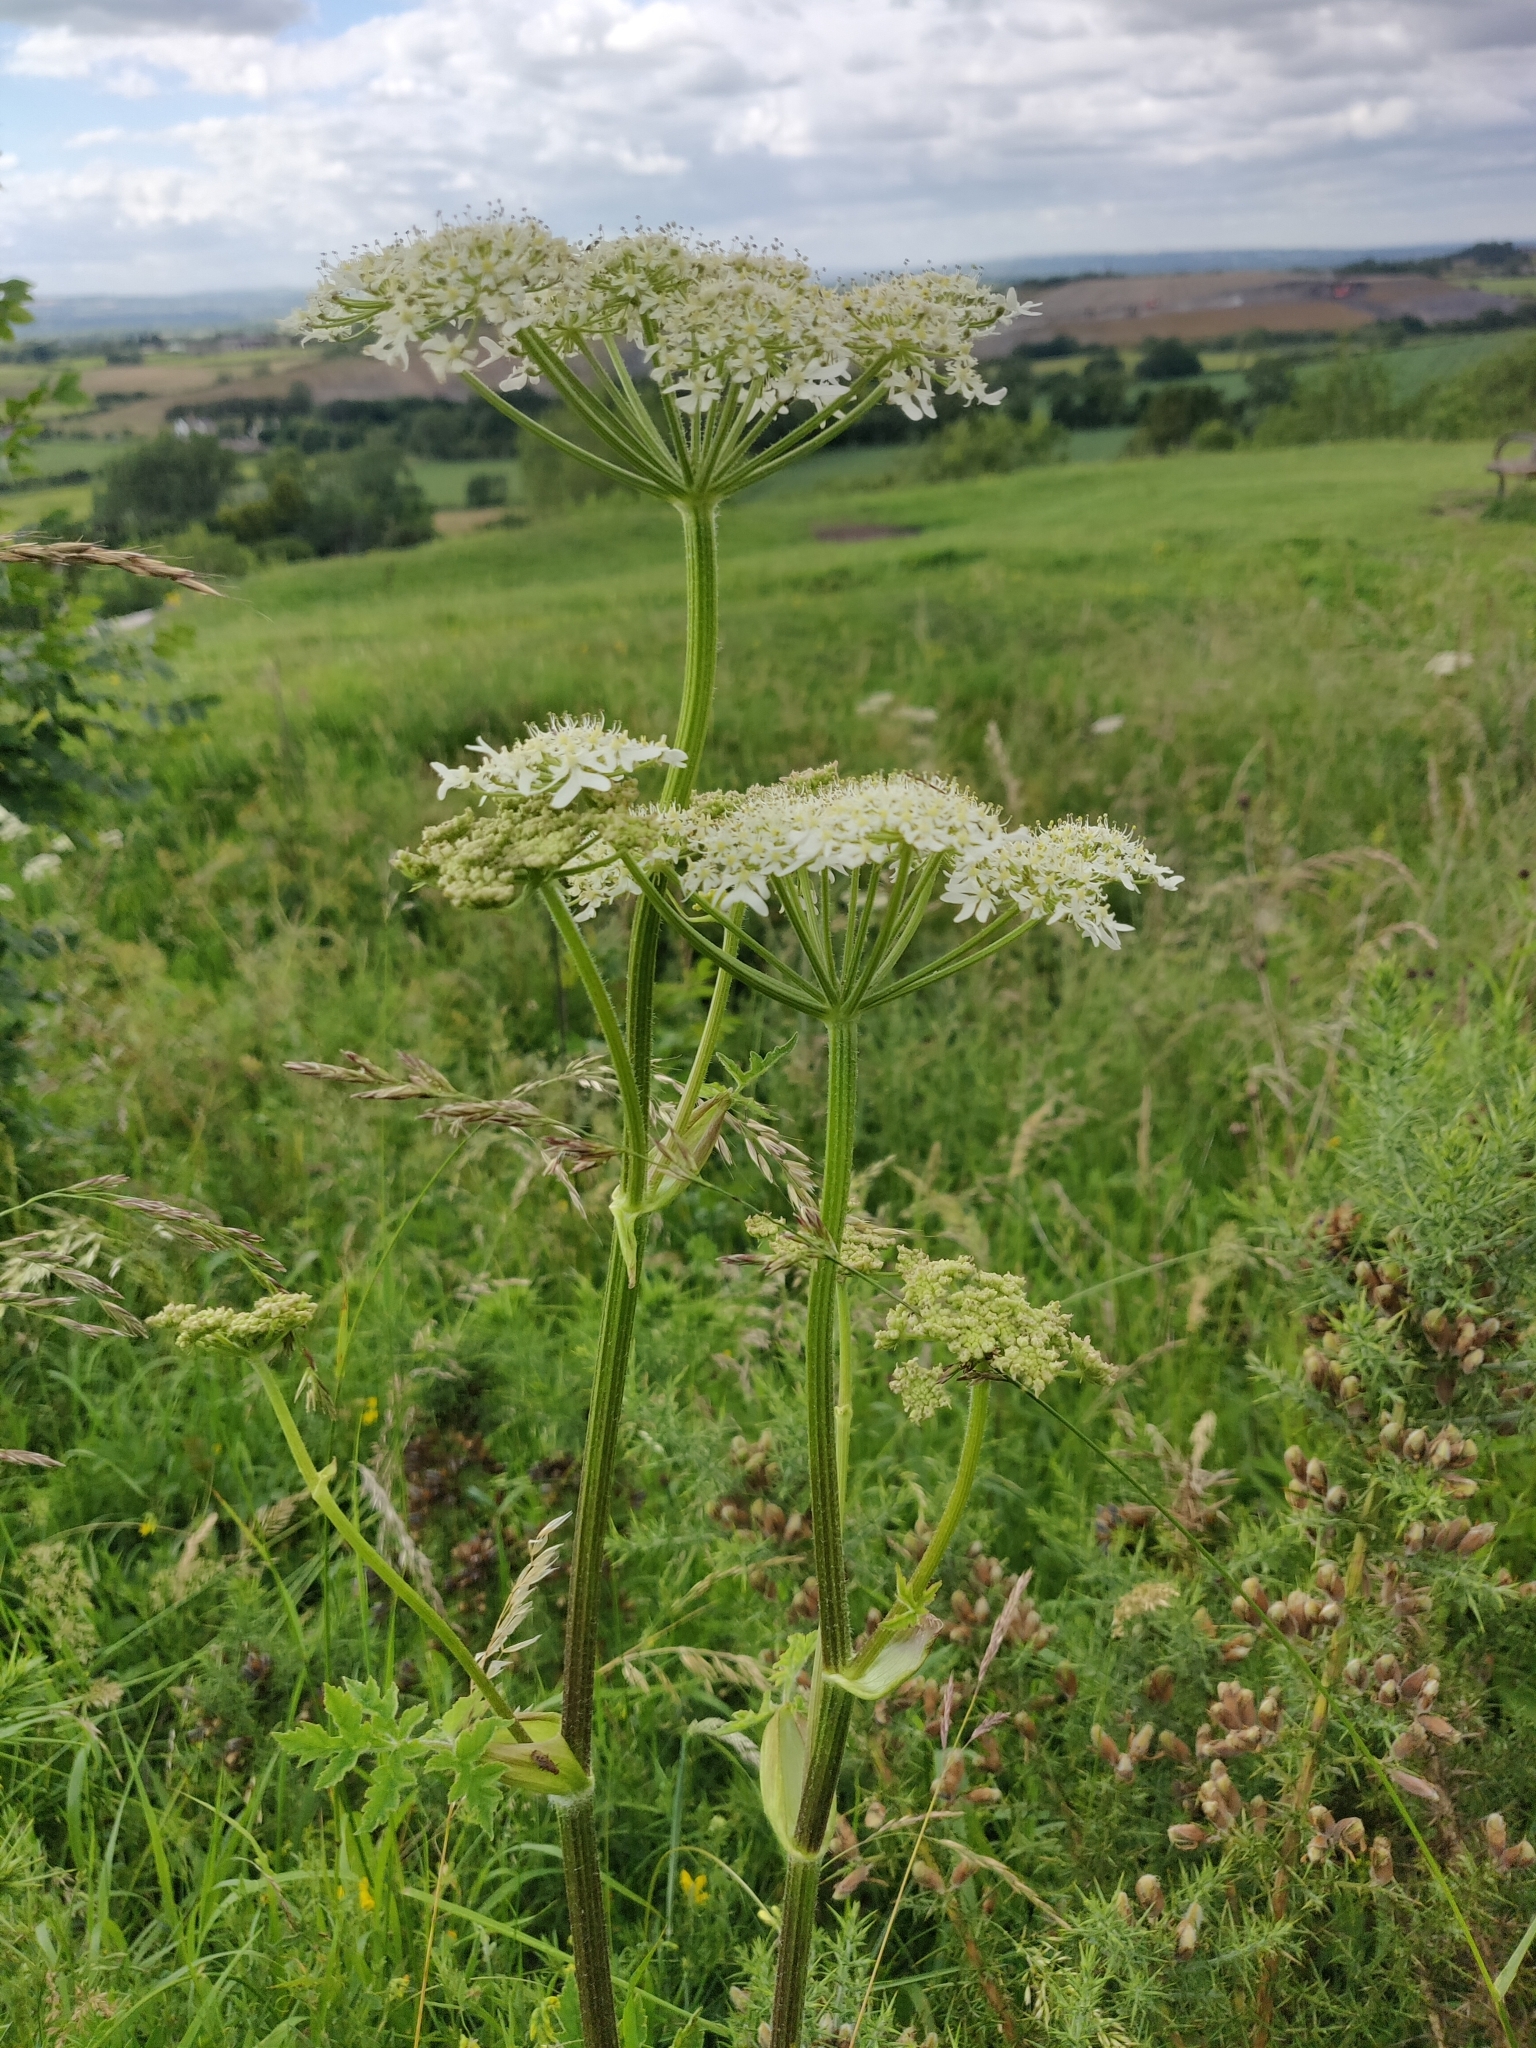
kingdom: Plantae
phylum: Tracheophyta
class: Magnoliopsida
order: Apiales
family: Apiaceae
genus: Heracleum
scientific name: Heracleum sphondylium
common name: Hogweed
